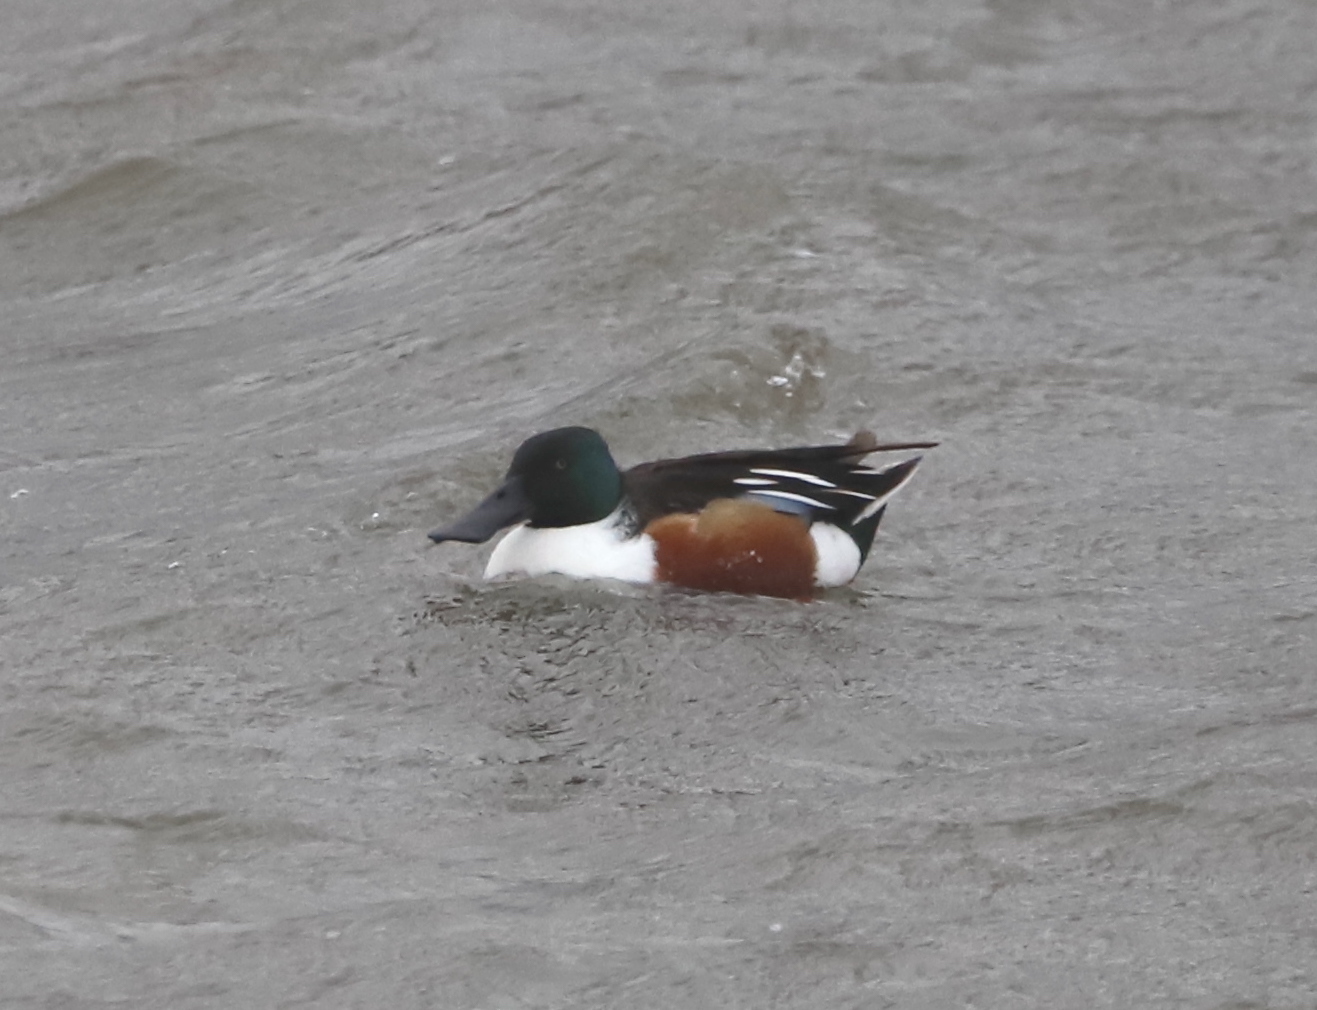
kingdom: Animalia
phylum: Chordata
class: Aves
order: Anseriformes
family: Anatidae
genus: Spatula
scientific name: Spatula clypeata
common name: Northern shoveler
